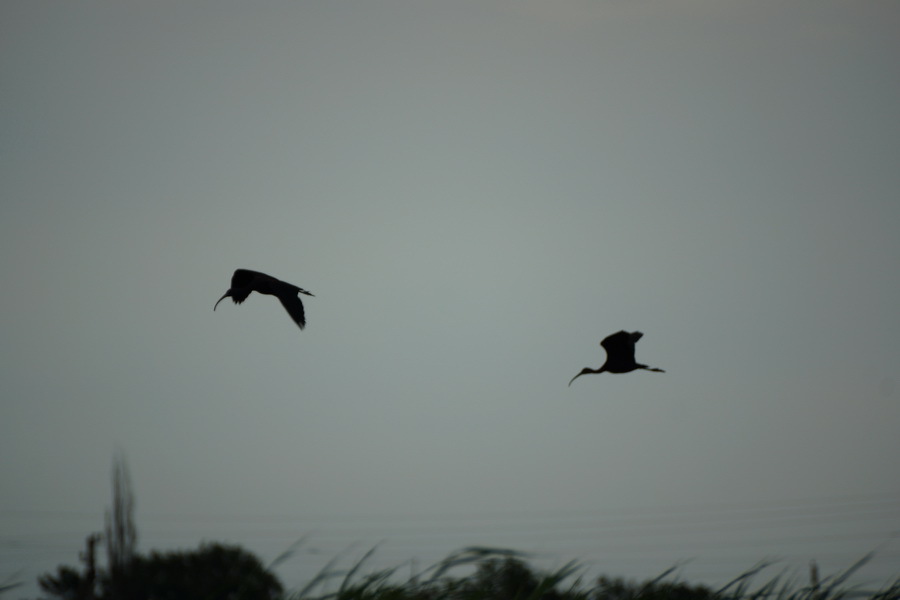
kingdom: Animalia
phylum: Chordata
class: Aves
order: Pelecaniformes
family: Threskiornithidae
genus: Plegadis
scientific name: Plegadis falcinellus
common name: Glossy ibis
